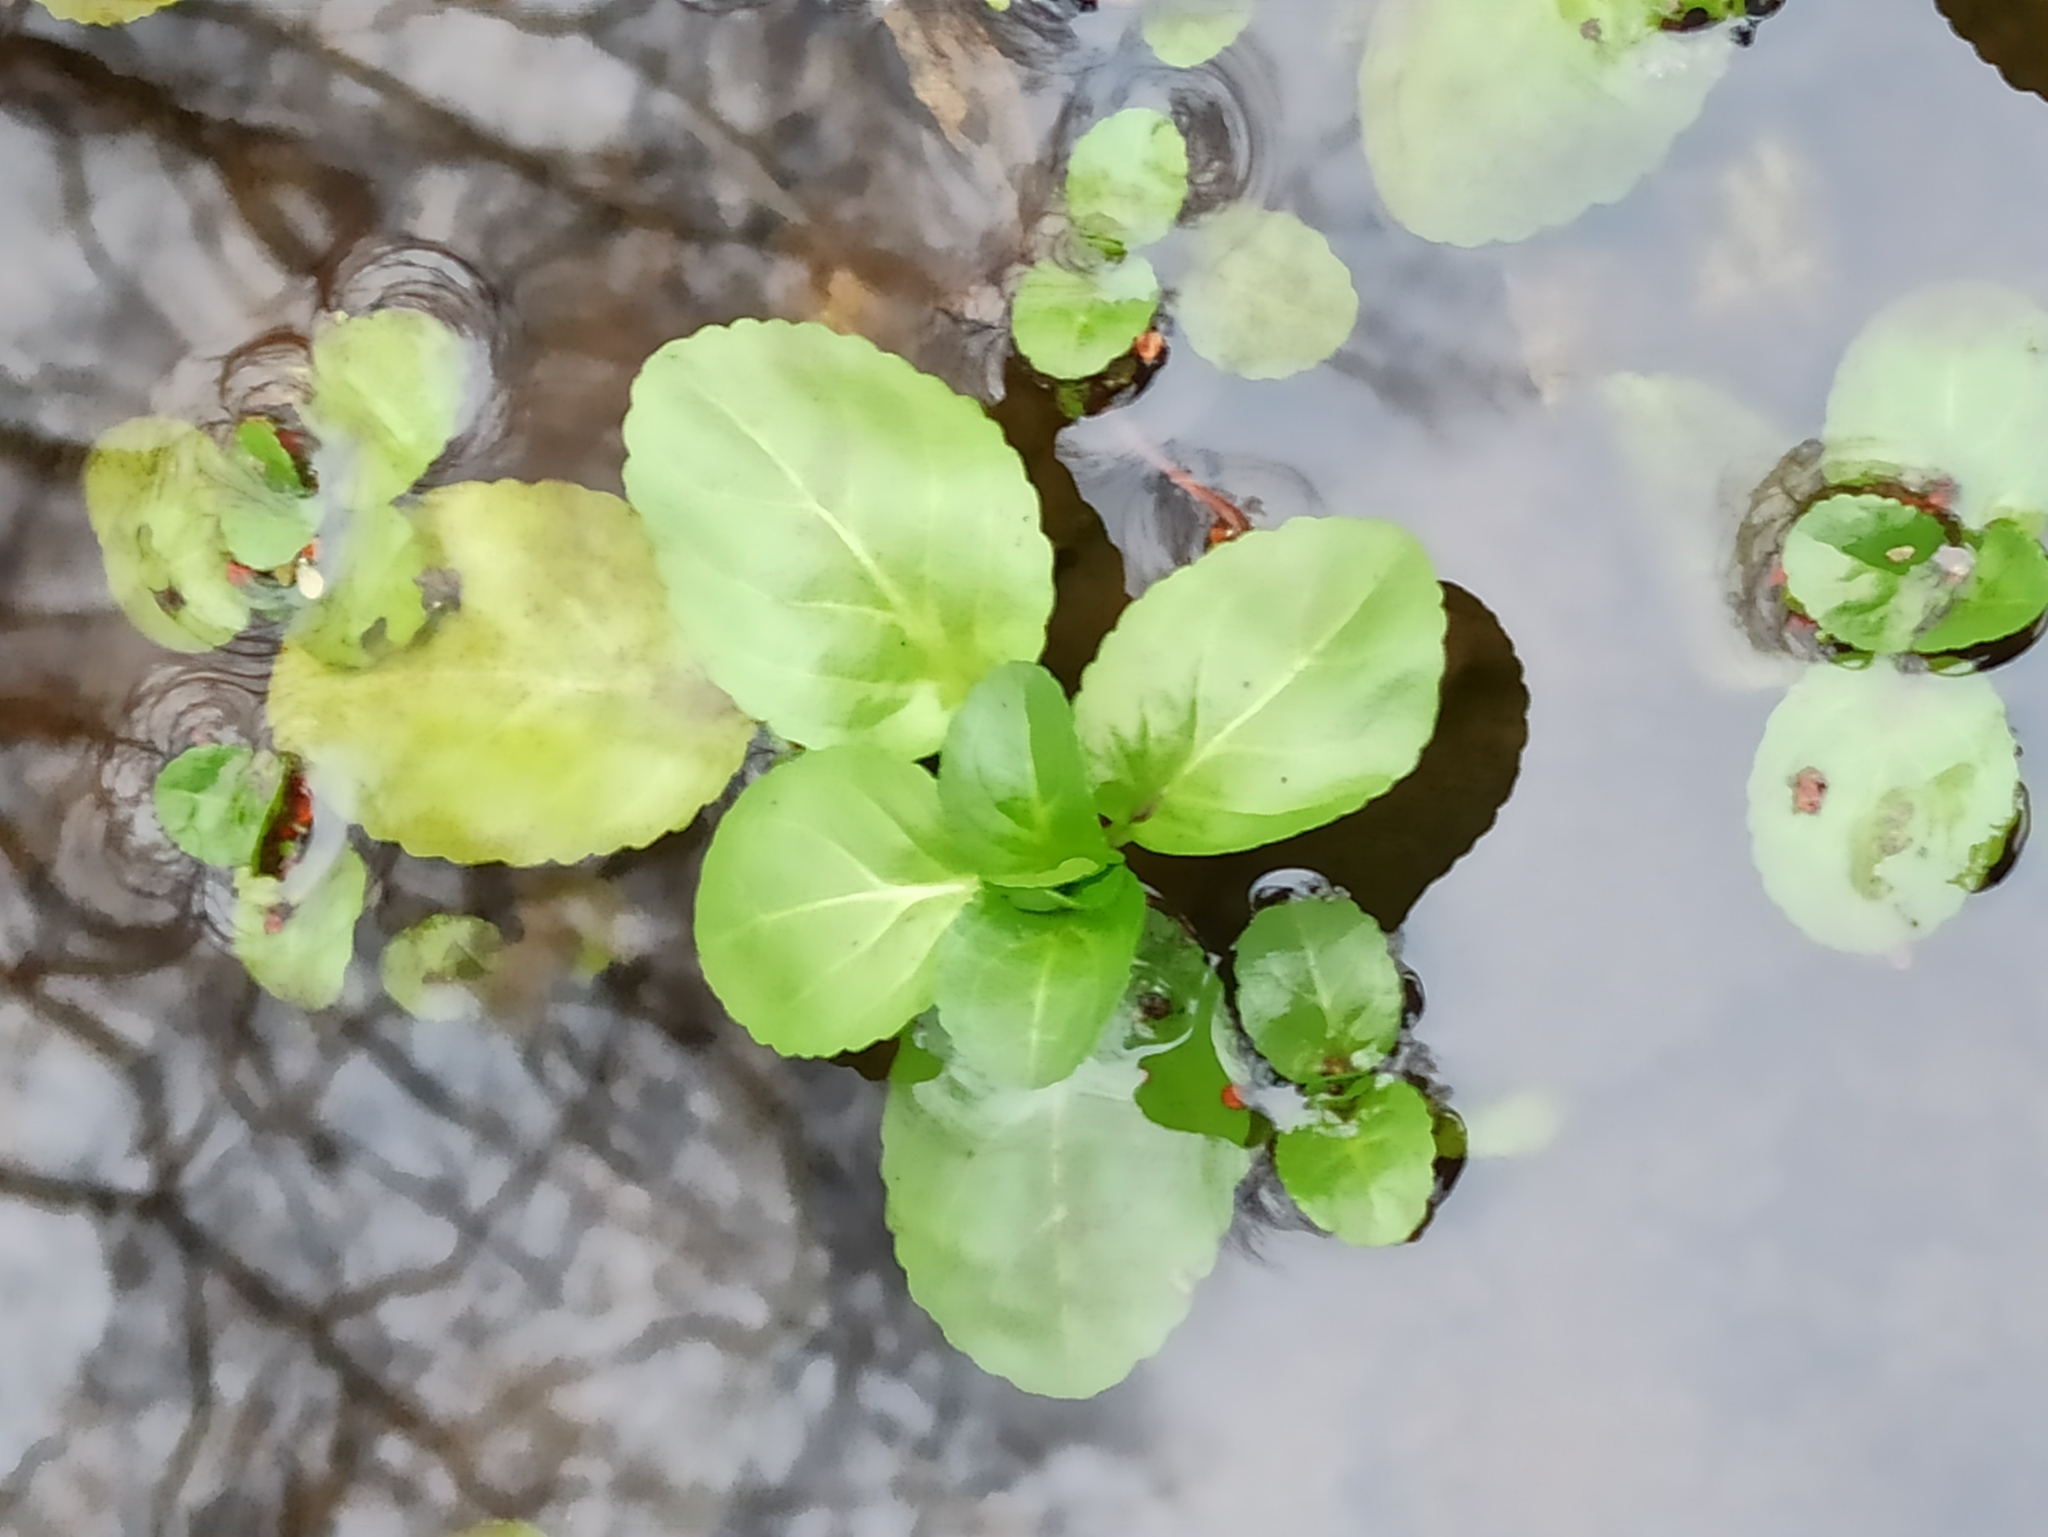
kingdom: Plantae
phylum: Tracheophyta
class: Magnoliopsida
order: Lamiales
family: Plantaginaceae
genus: Veronica
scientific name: Veronica beccabunga
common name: Brooklime
